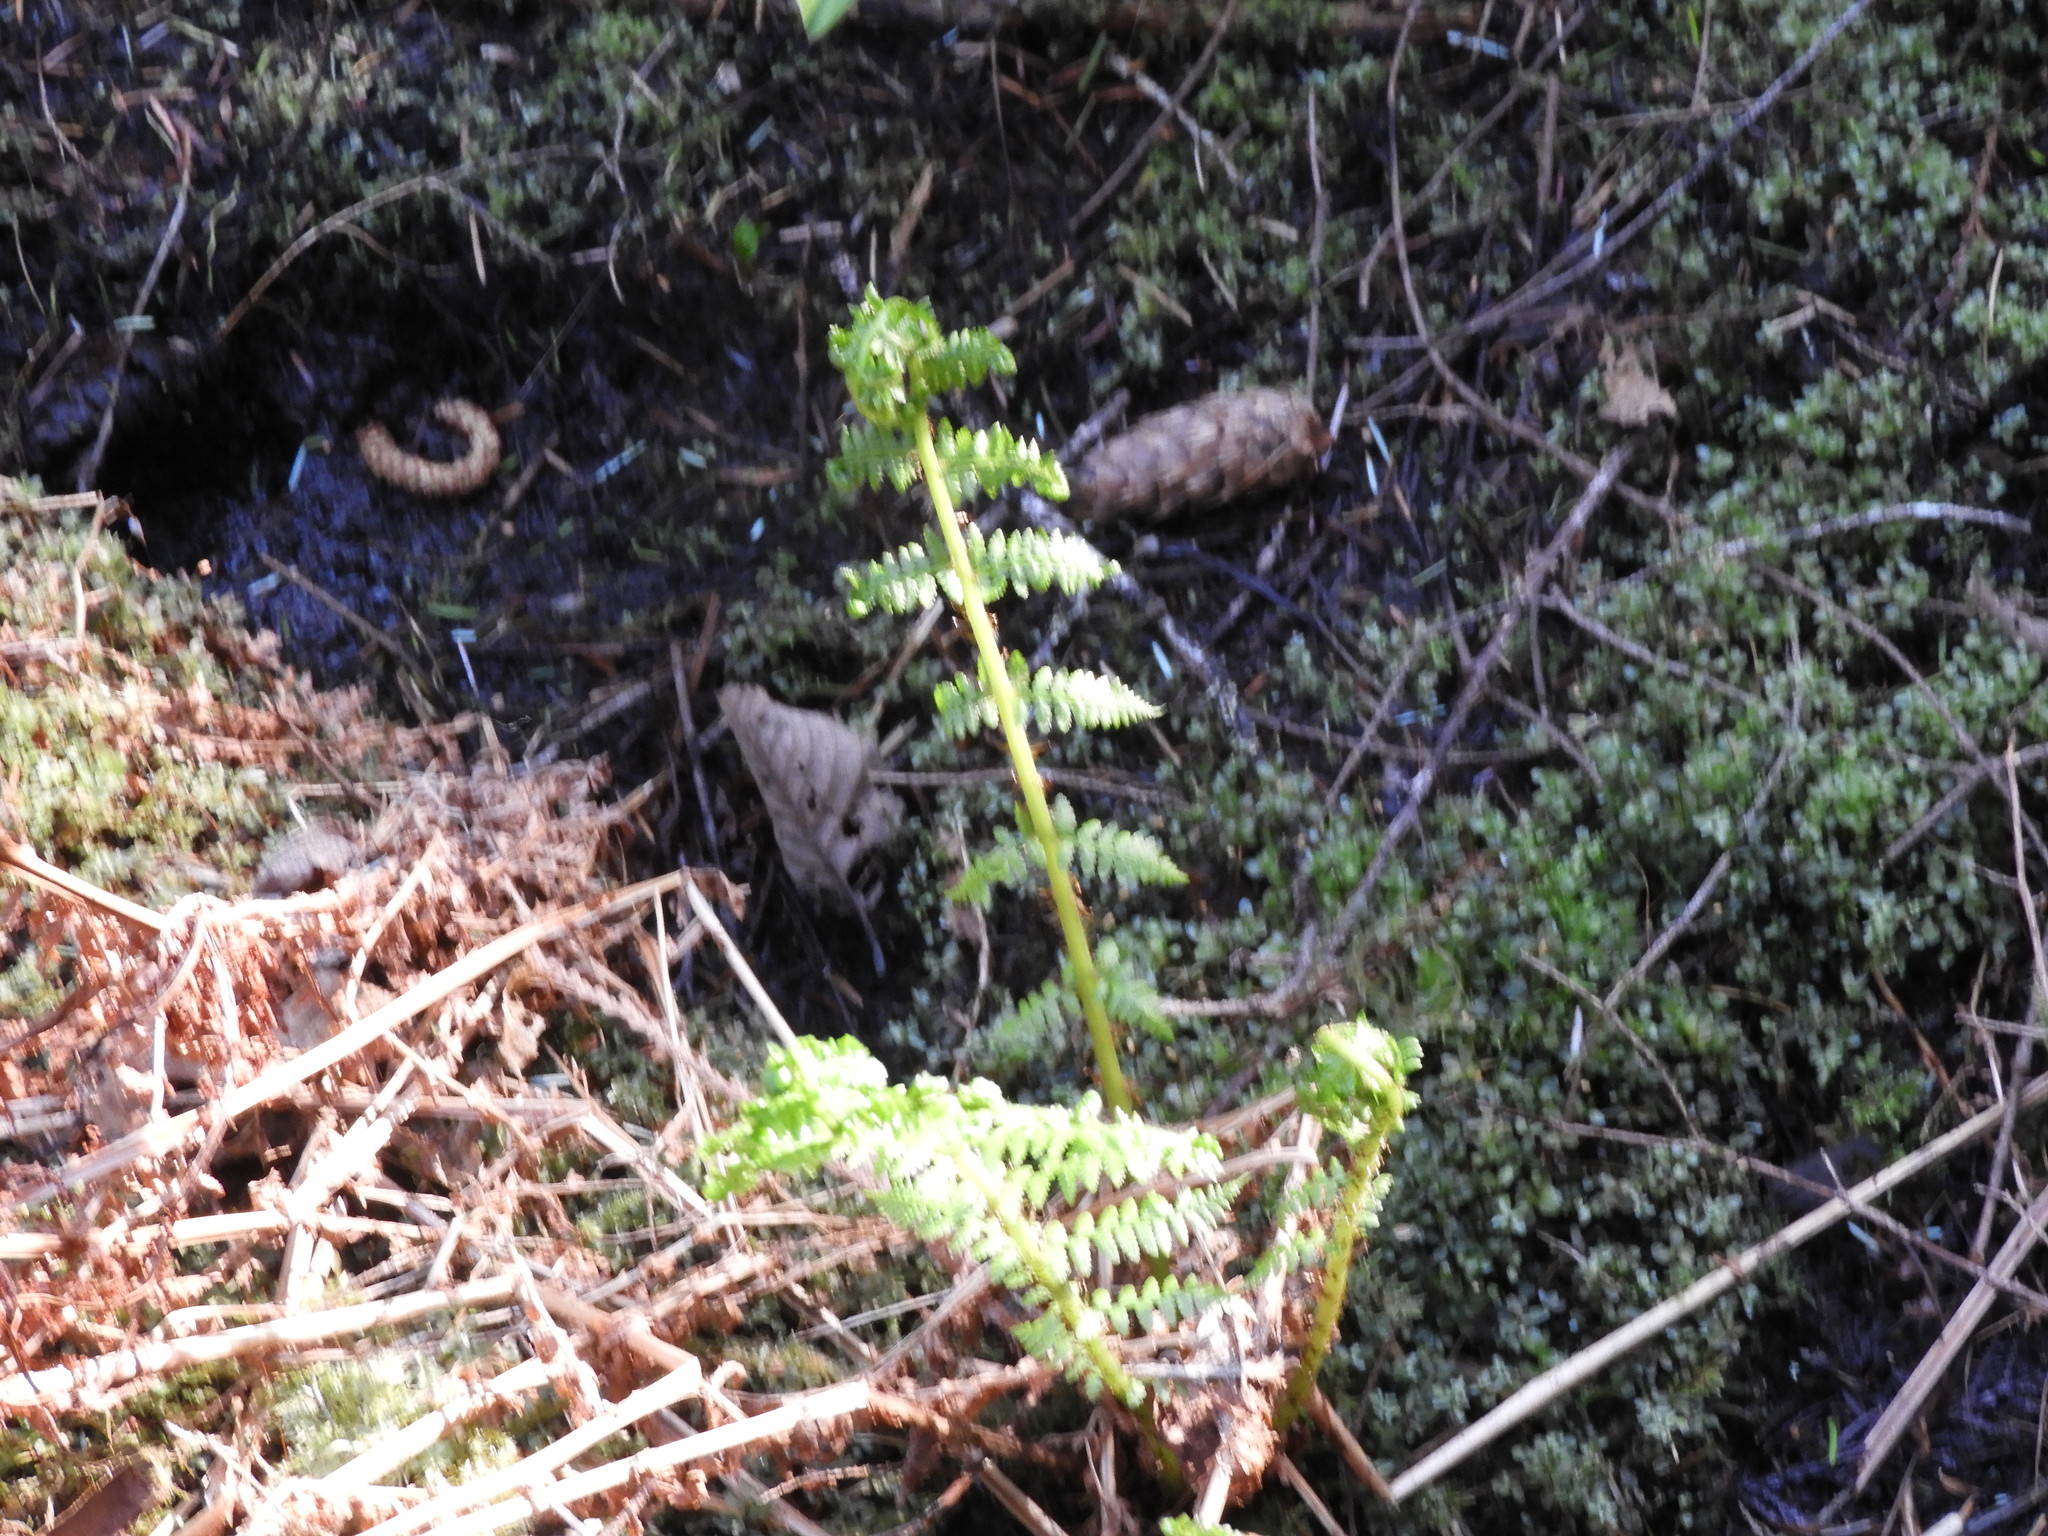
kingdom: Plantae
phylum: Tracheophyta
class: Polypodiopsida
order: Polypodiales
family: Athyriaceae
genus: Athyrium
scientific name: Athyrium filix-femina
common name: Lady fern
